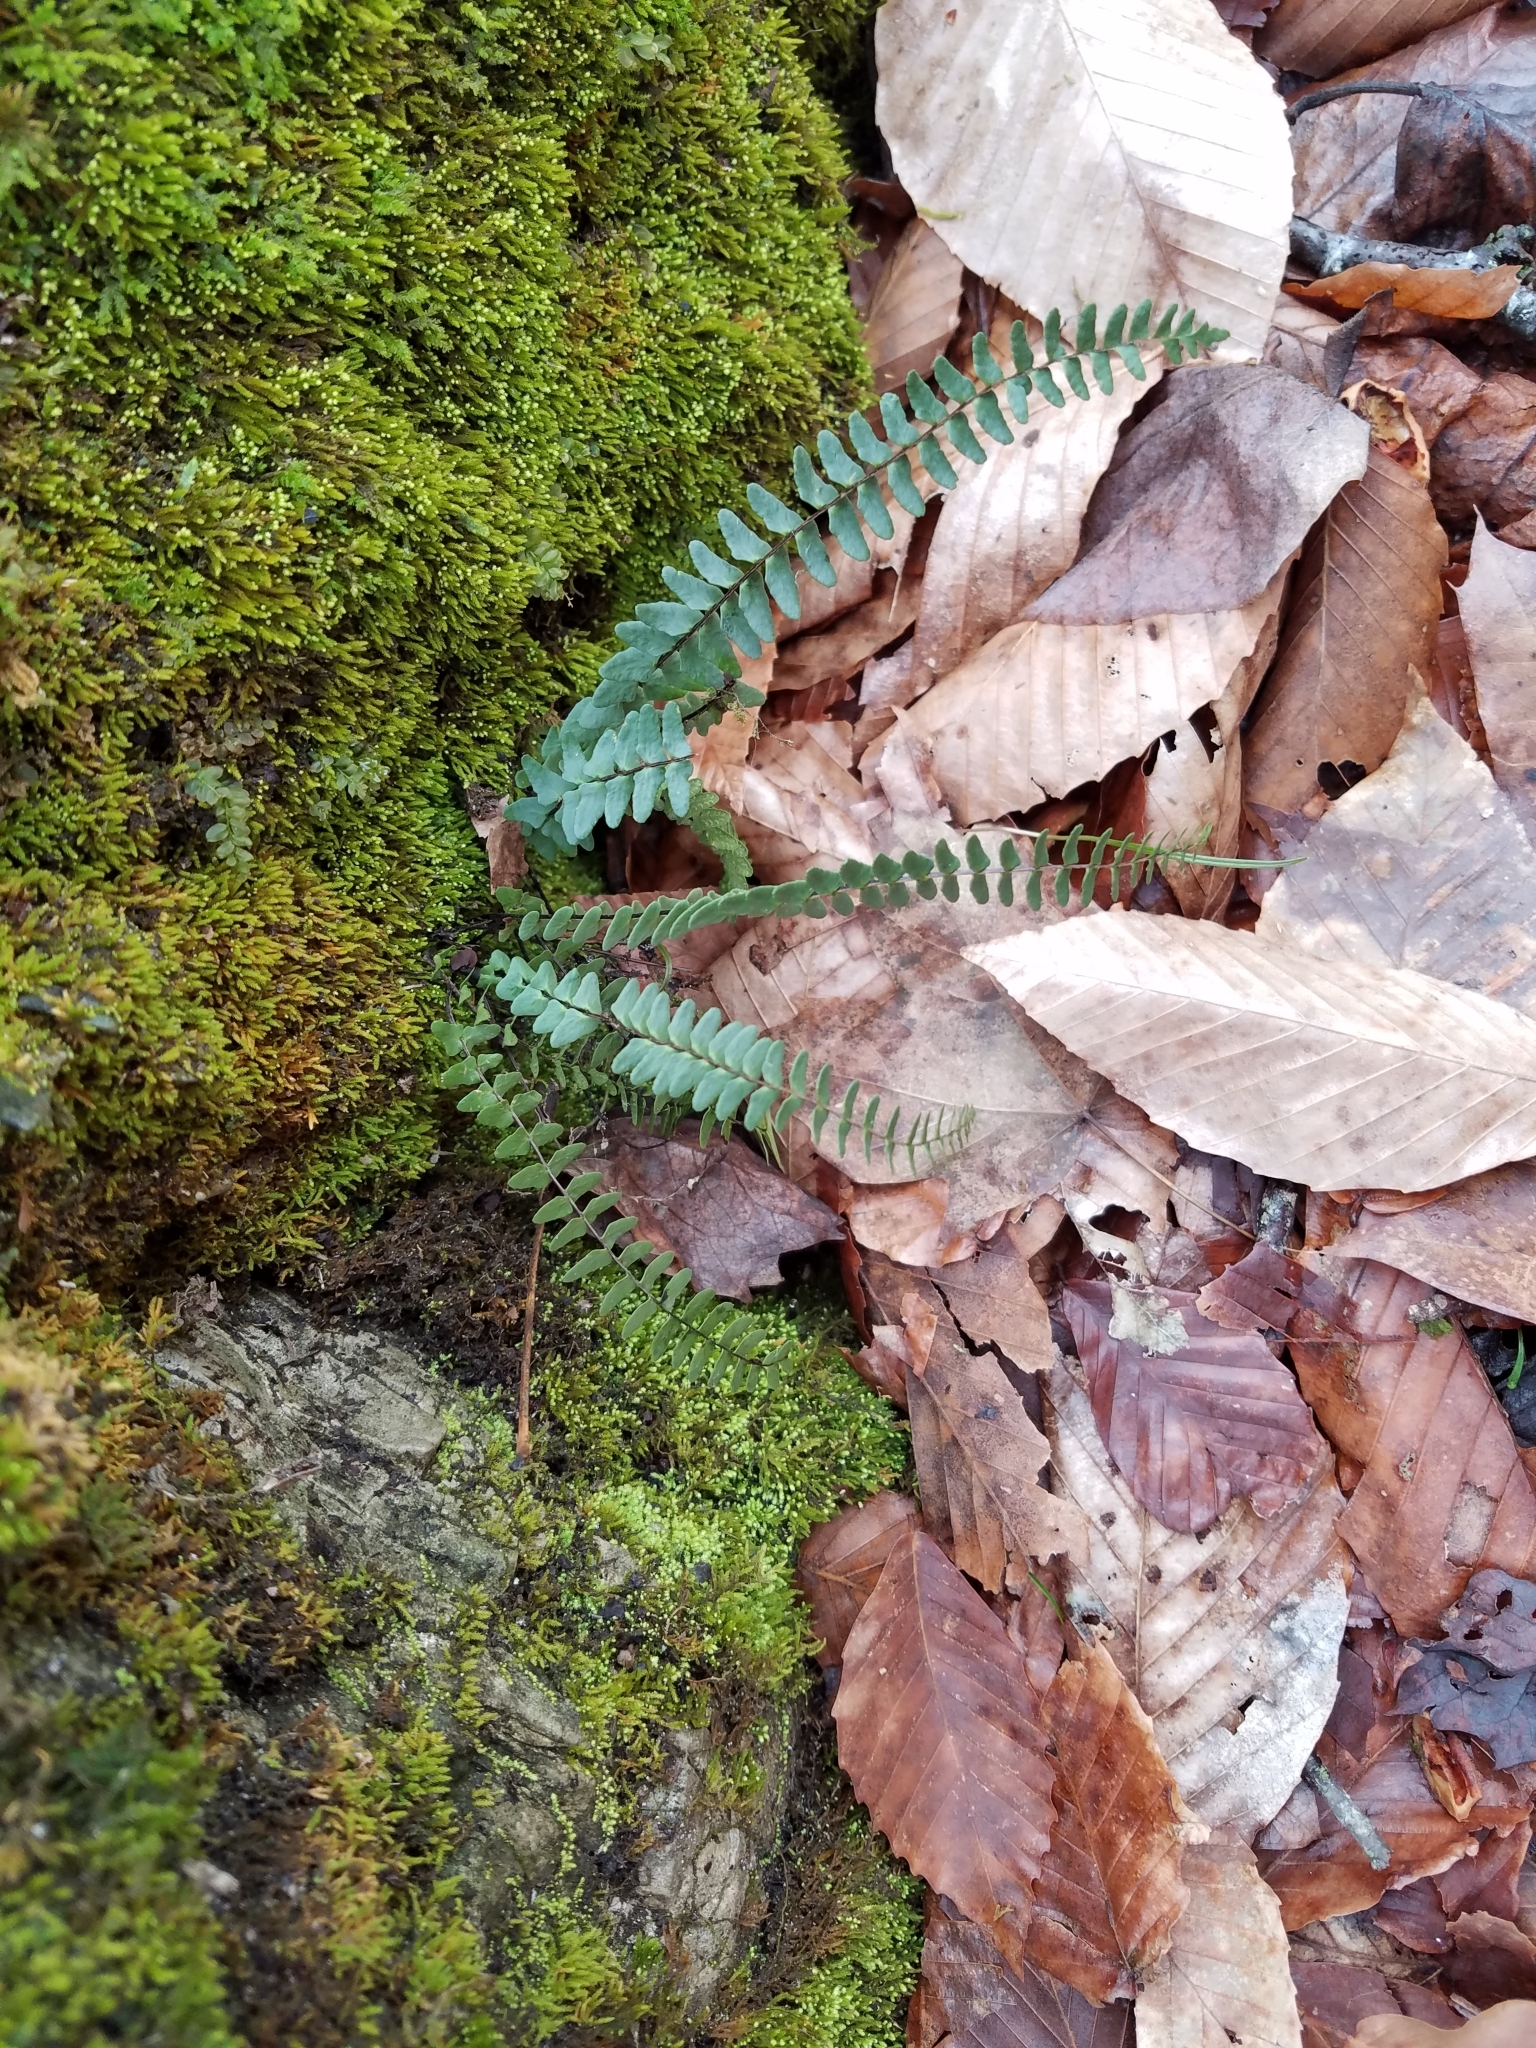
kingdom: Plantae
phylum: Tracheophyta
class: Polypodiopsida
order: Polypodiales
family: Aspleniaceae
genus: Asplenium
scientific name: Asplenium resiliens
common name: Blackstem spleenwort
